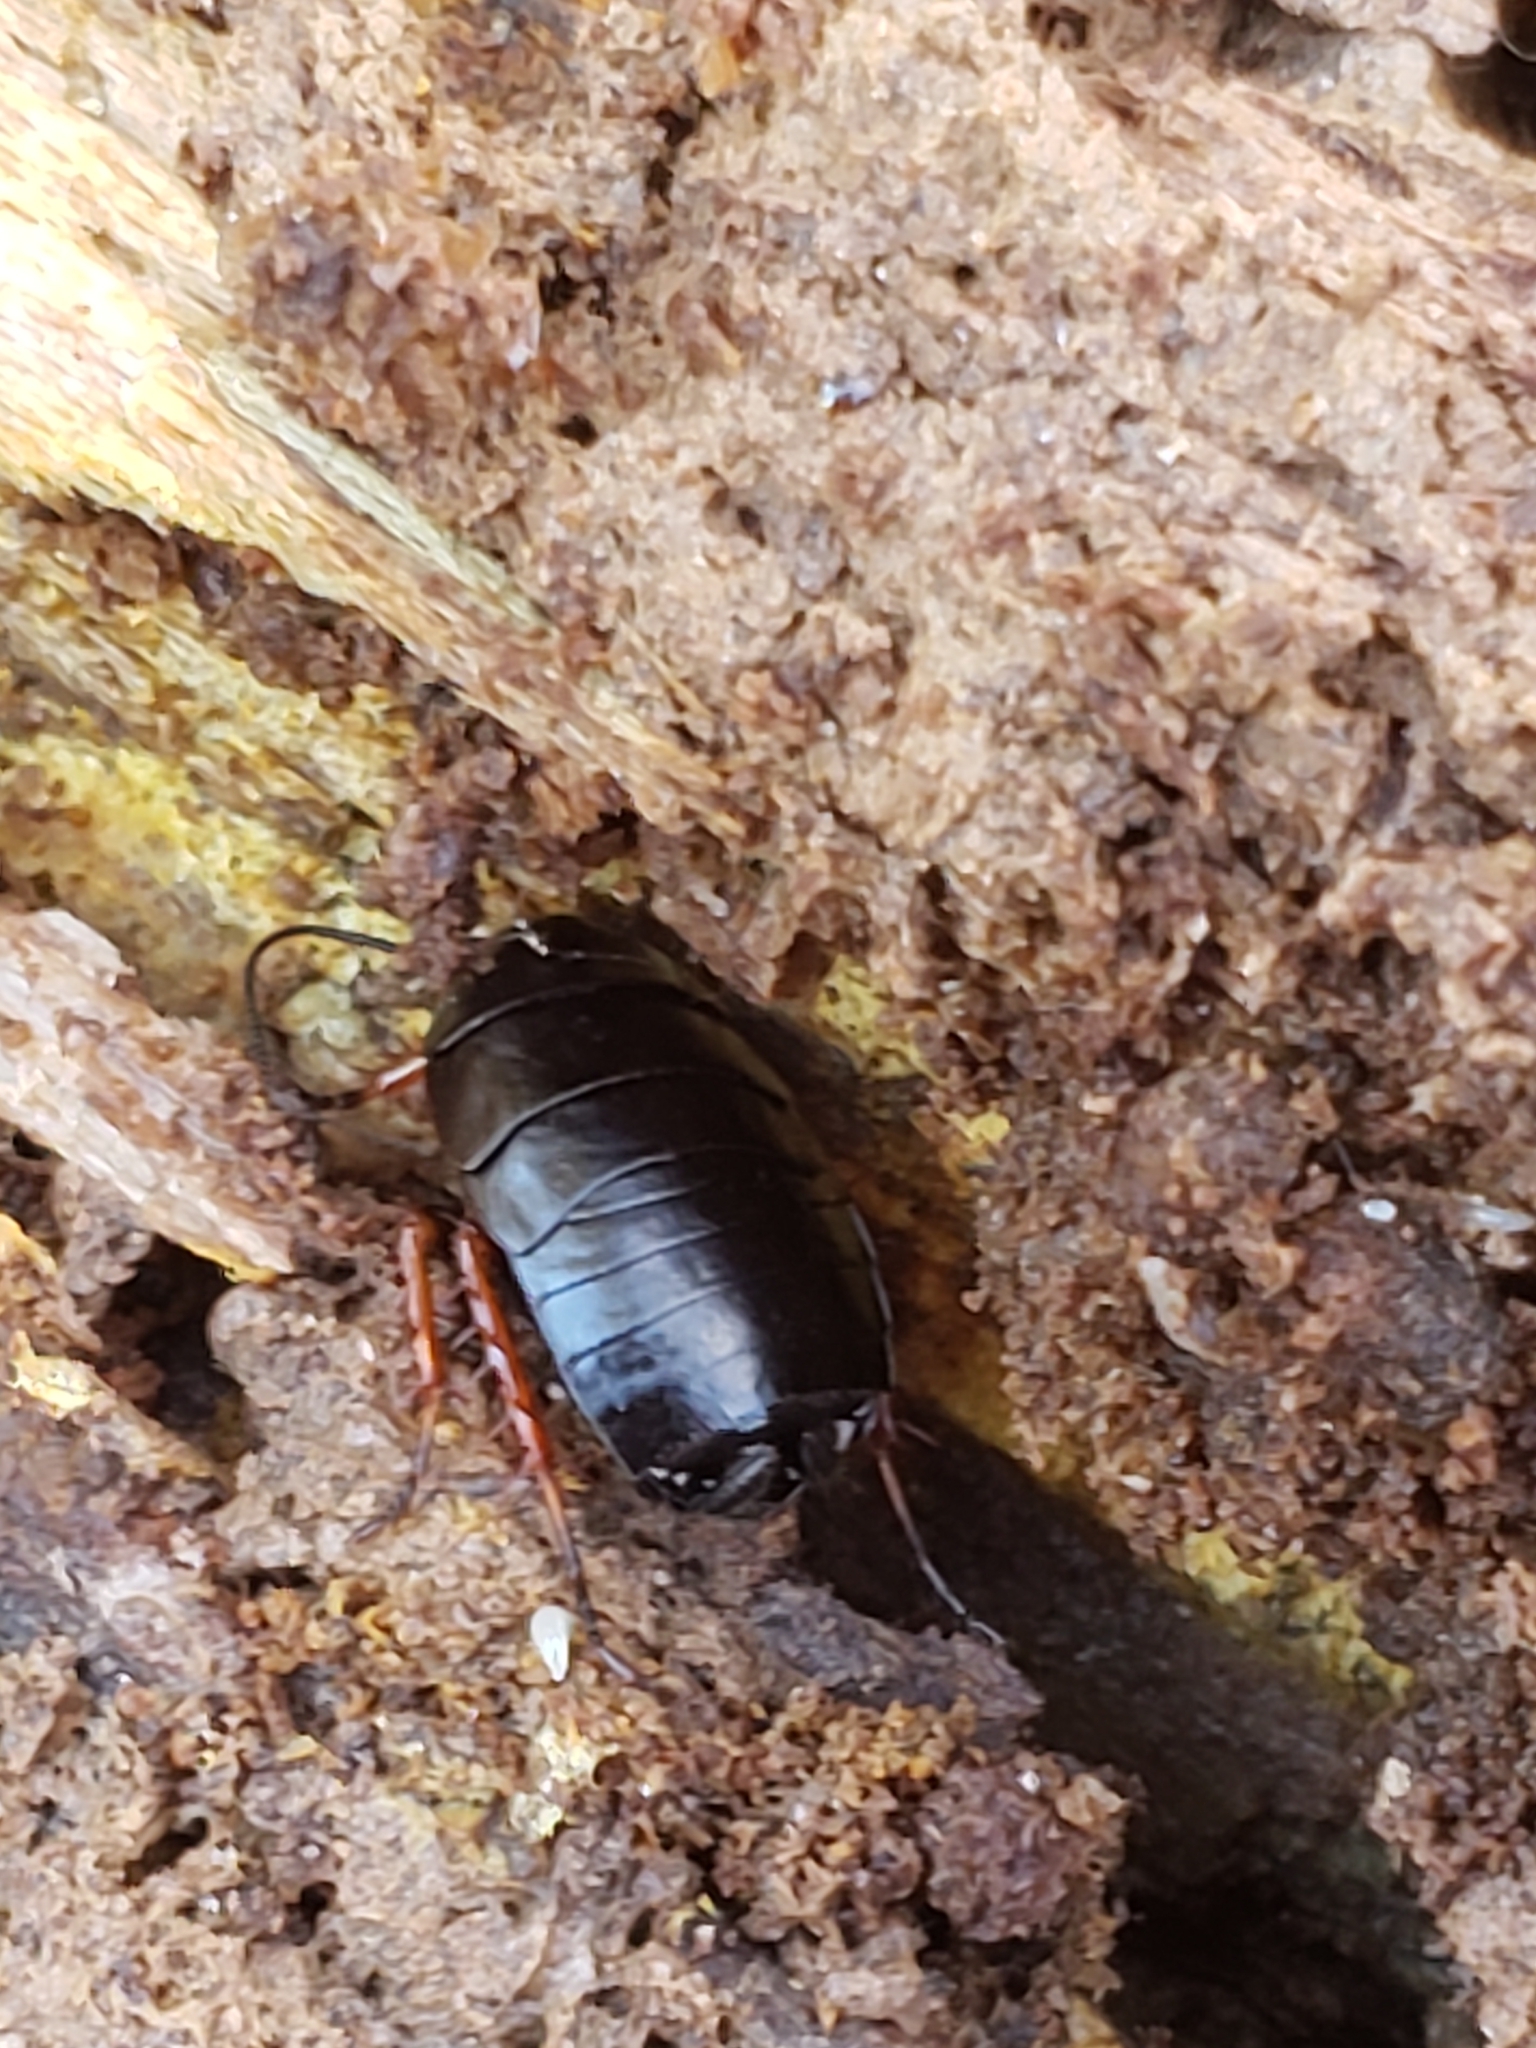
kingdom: Animalia
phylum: Arthropoda
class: Insecta
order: Blattodea
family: Ectobiidae
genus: Ischnoptera
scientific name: Ischnoptera deropeltiformis
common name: Dark wood cockroach
